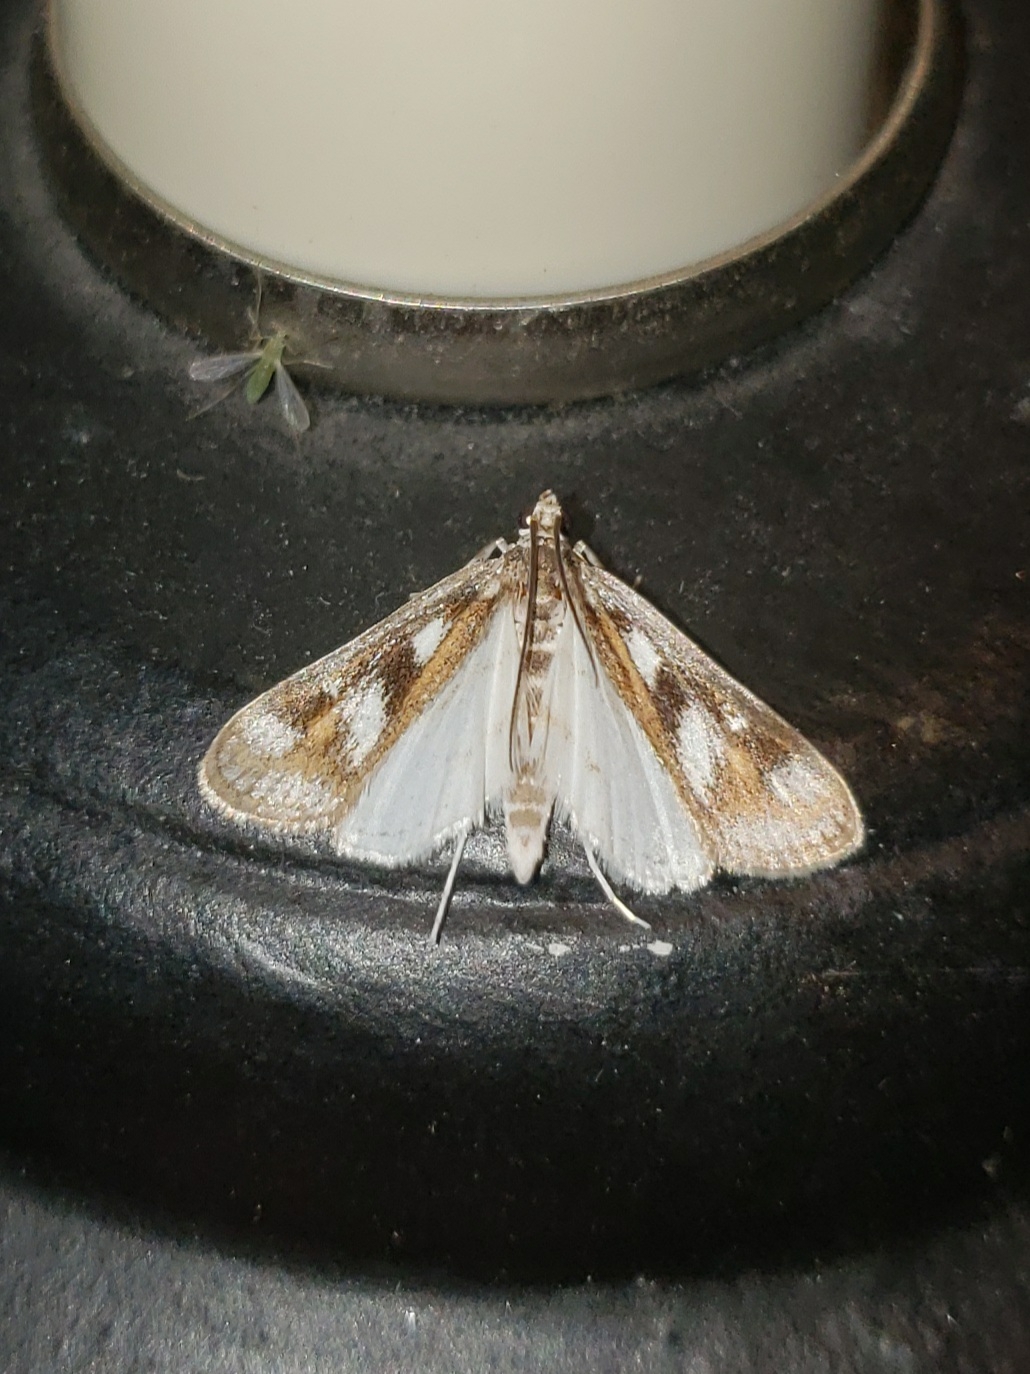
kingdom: Animalia
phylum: Arthropoda
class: Insecta
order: Lepidoptera
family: Crambidae
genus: Parapoynx
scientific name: Parapoynx maculalis
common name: Polymorphic pondweed moth
